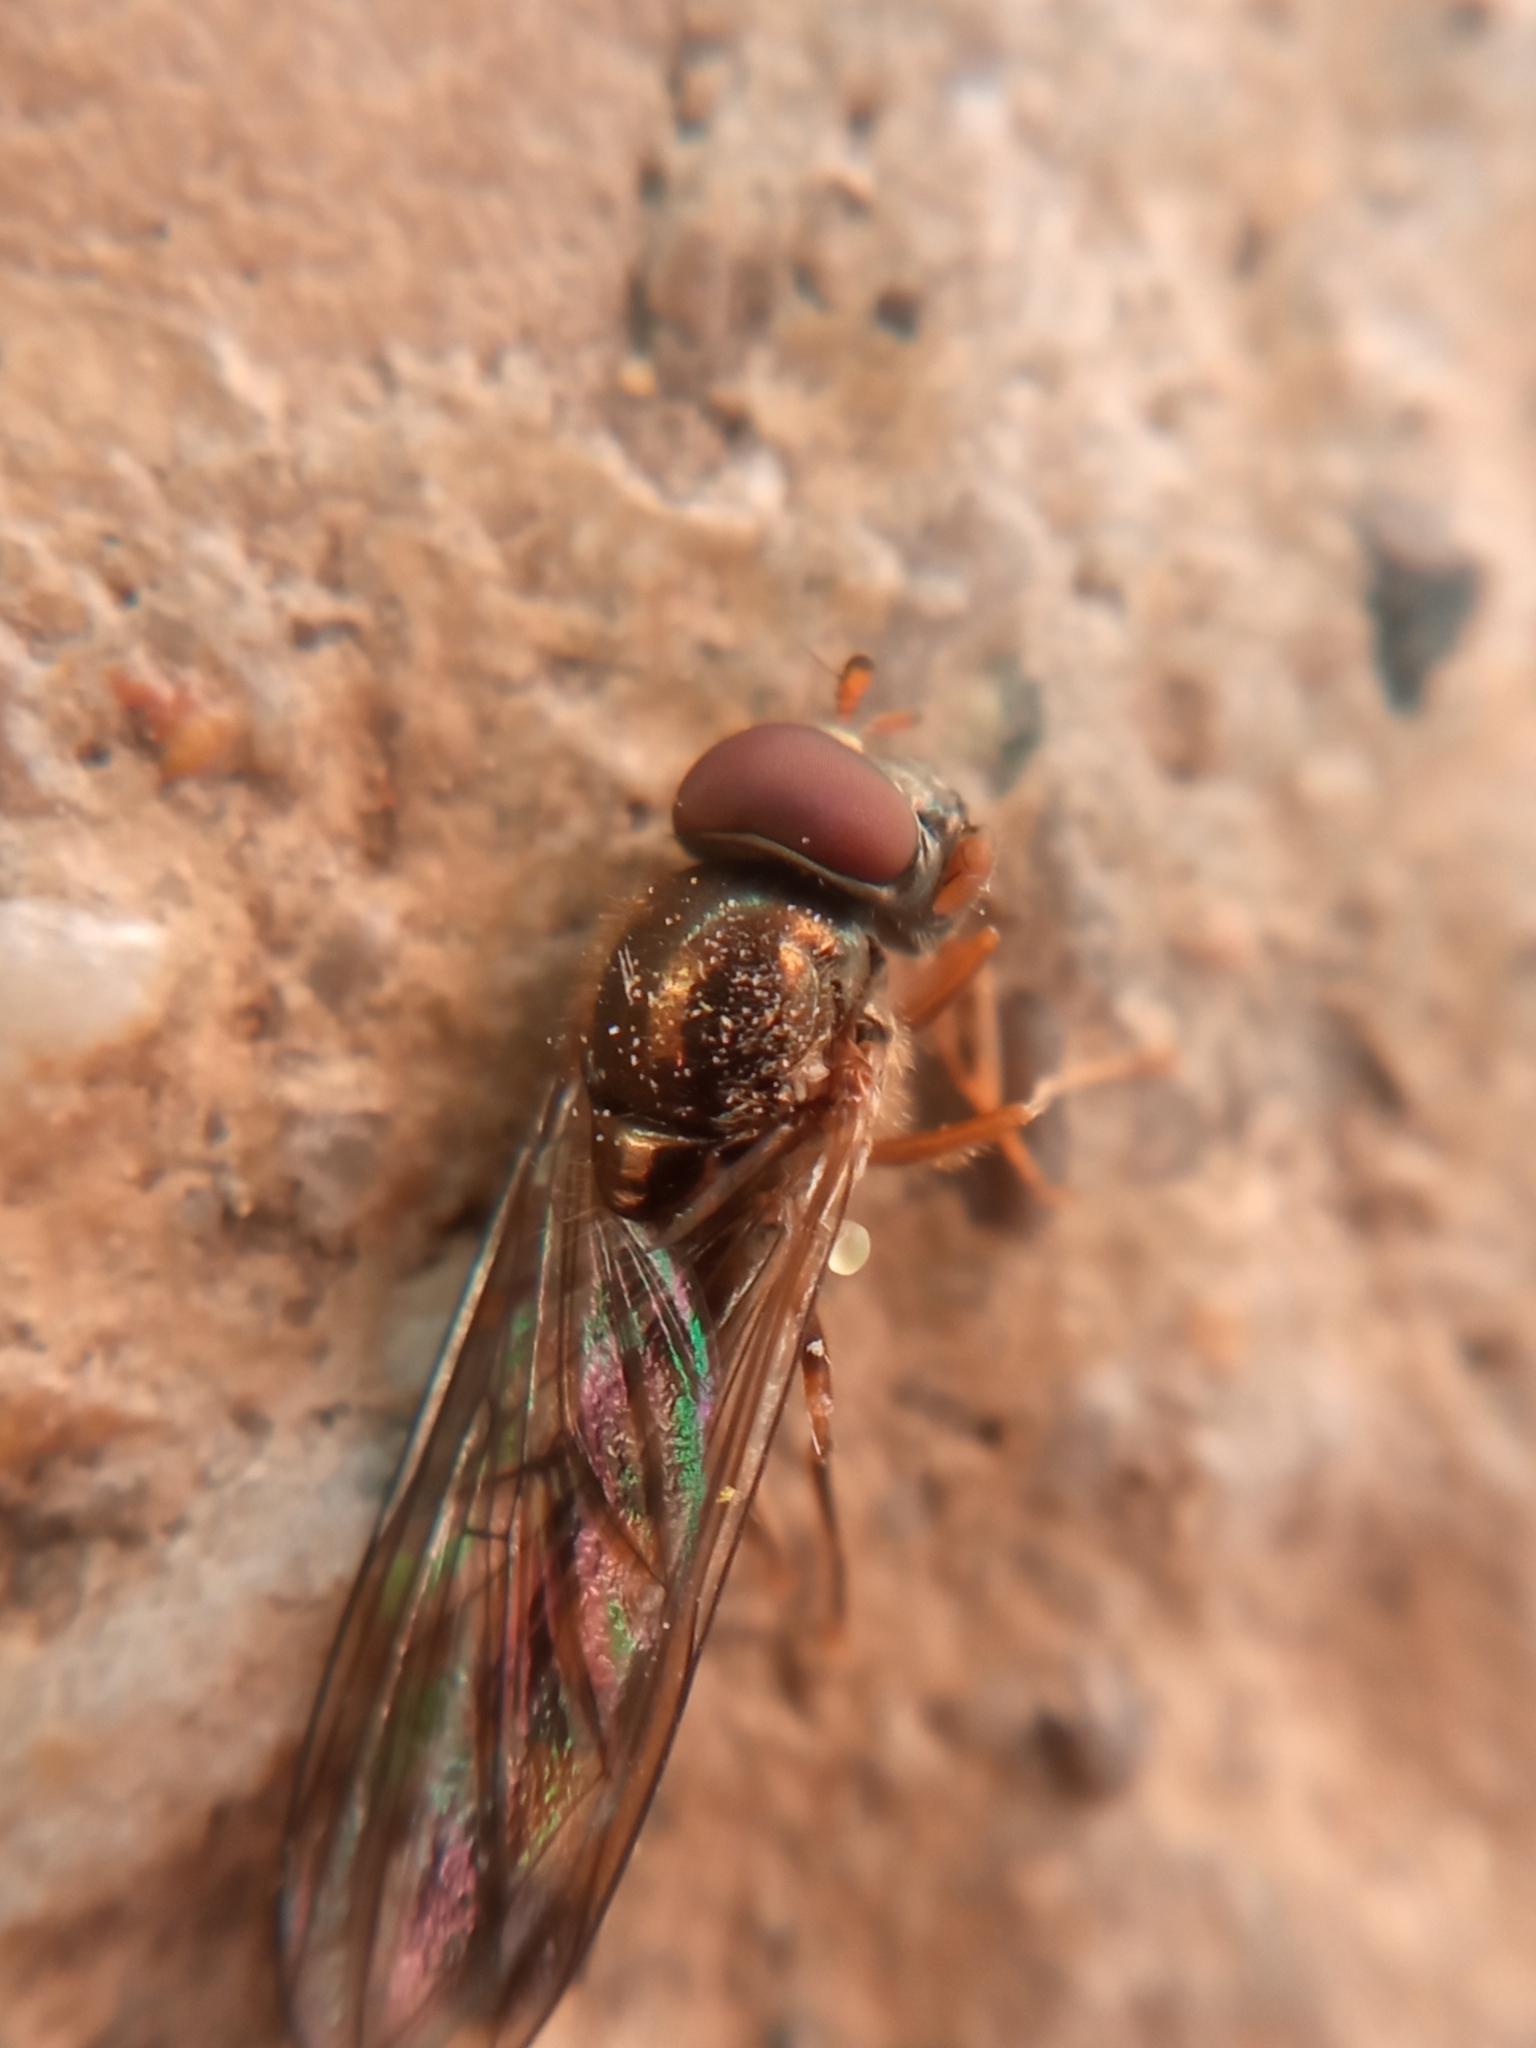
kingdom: Animalia
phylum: Arthropoda
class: Insecta
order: Diptera
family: Syrphidae
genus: Melanostoma
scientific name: Melanostoma scalare
